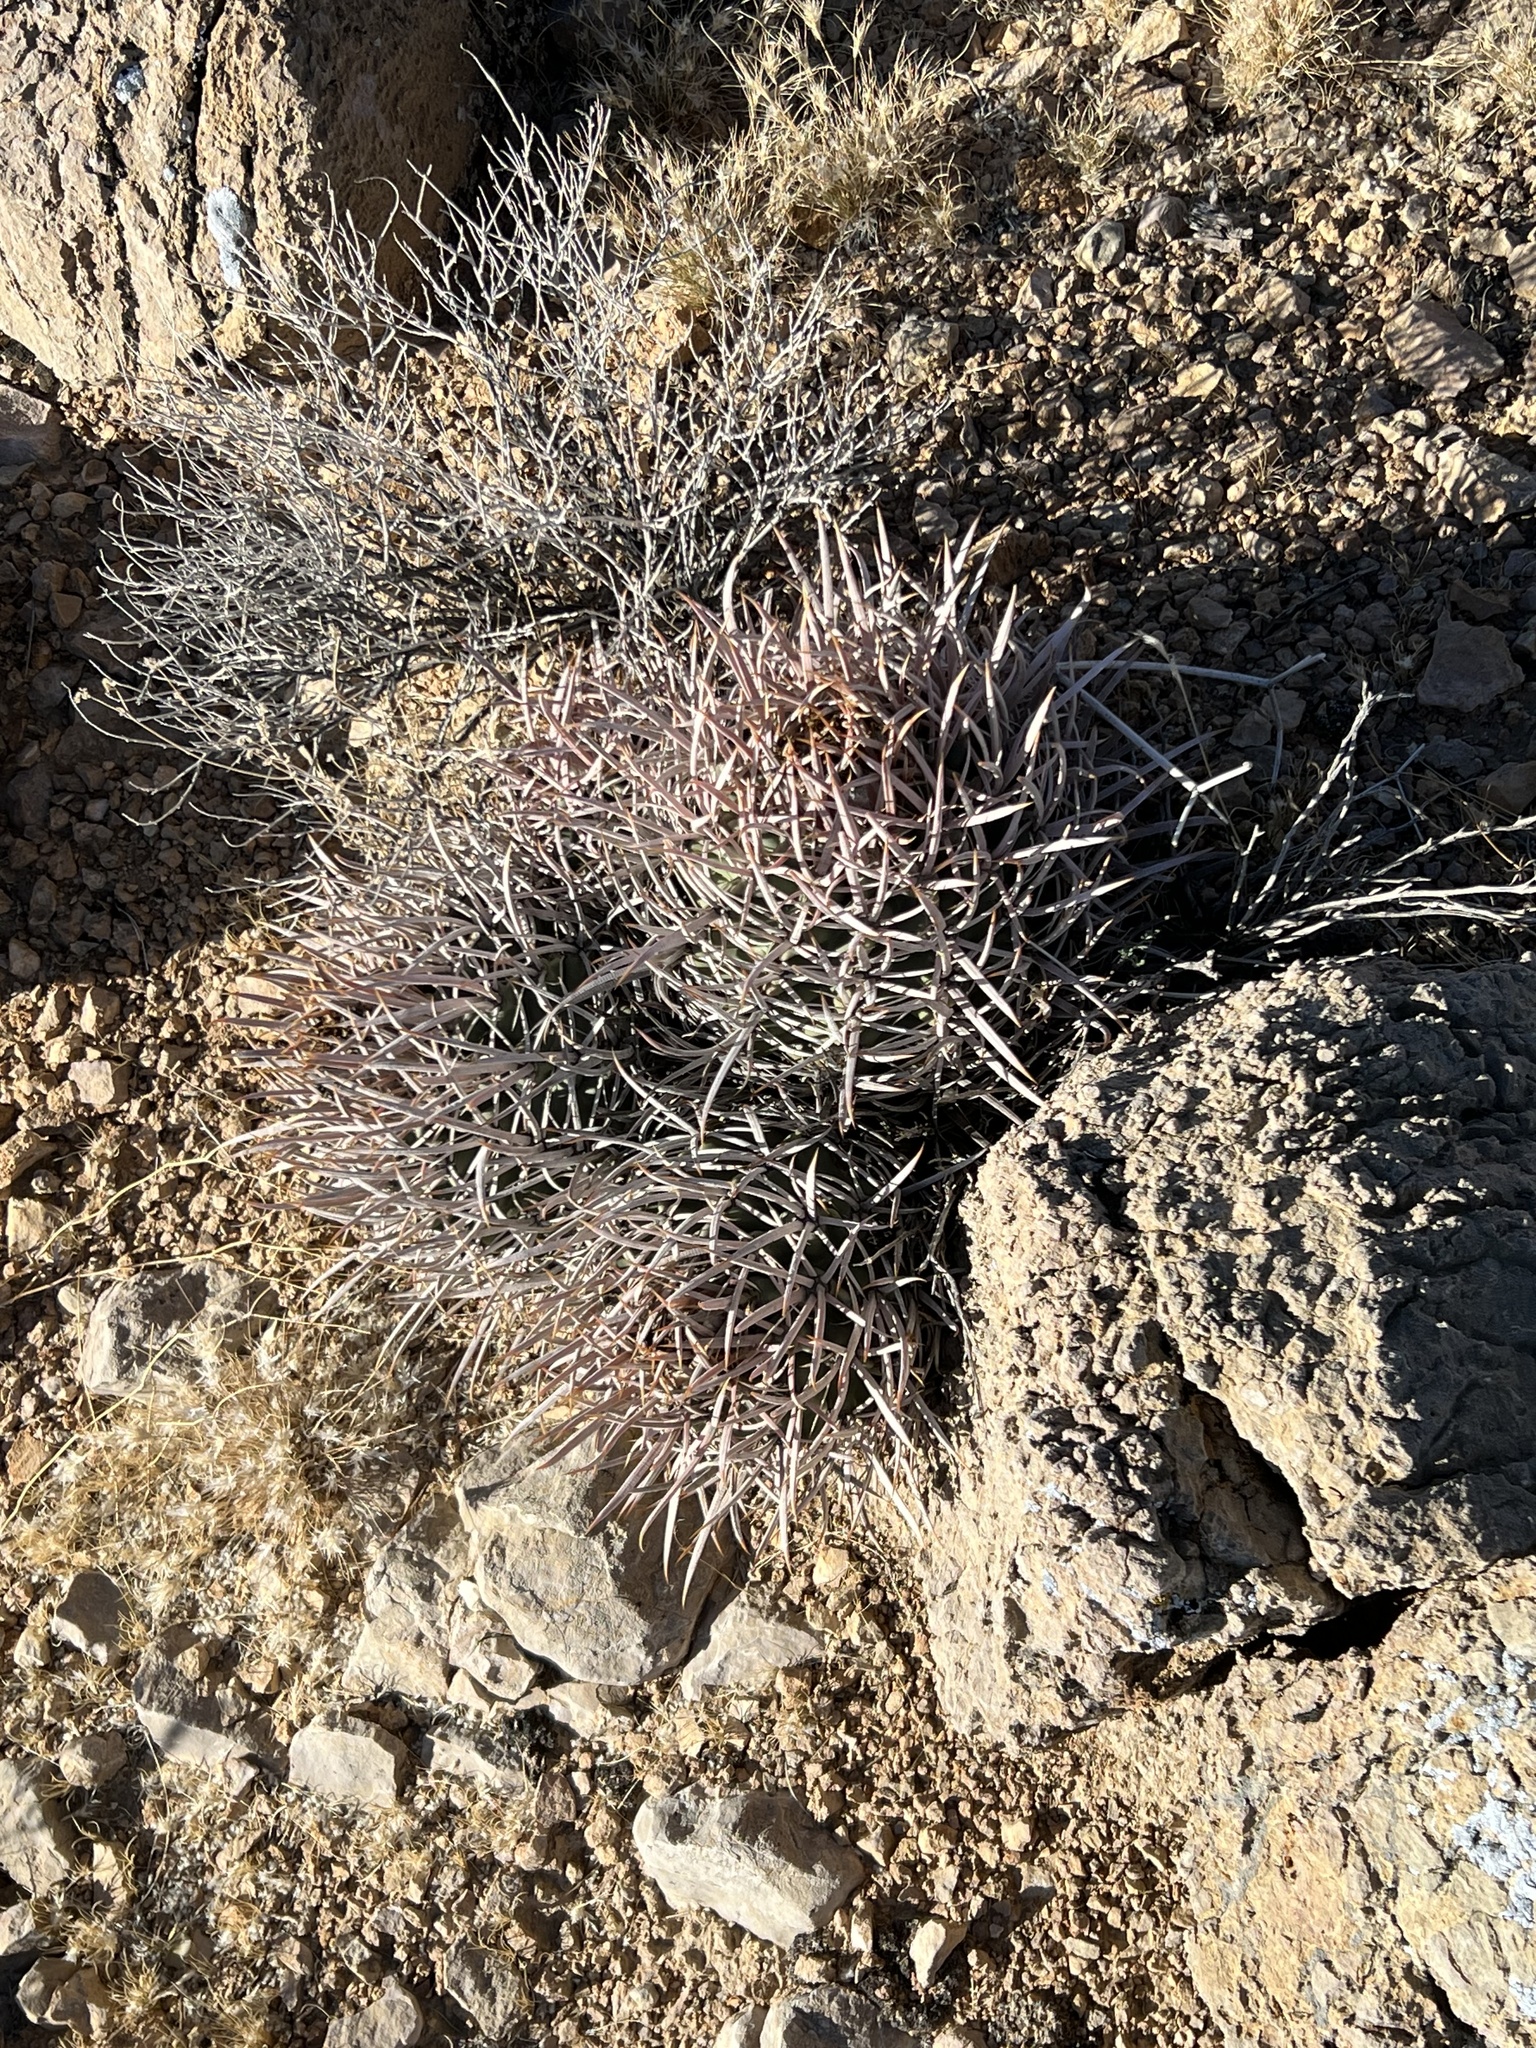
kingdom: Plantae
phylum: Tracheophyta
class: Magnoliopsida
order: Caryophyllales
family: Cactaceae
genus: Echinocactus
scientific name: Echinocactus polycephalus
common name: Cottontop cactus
